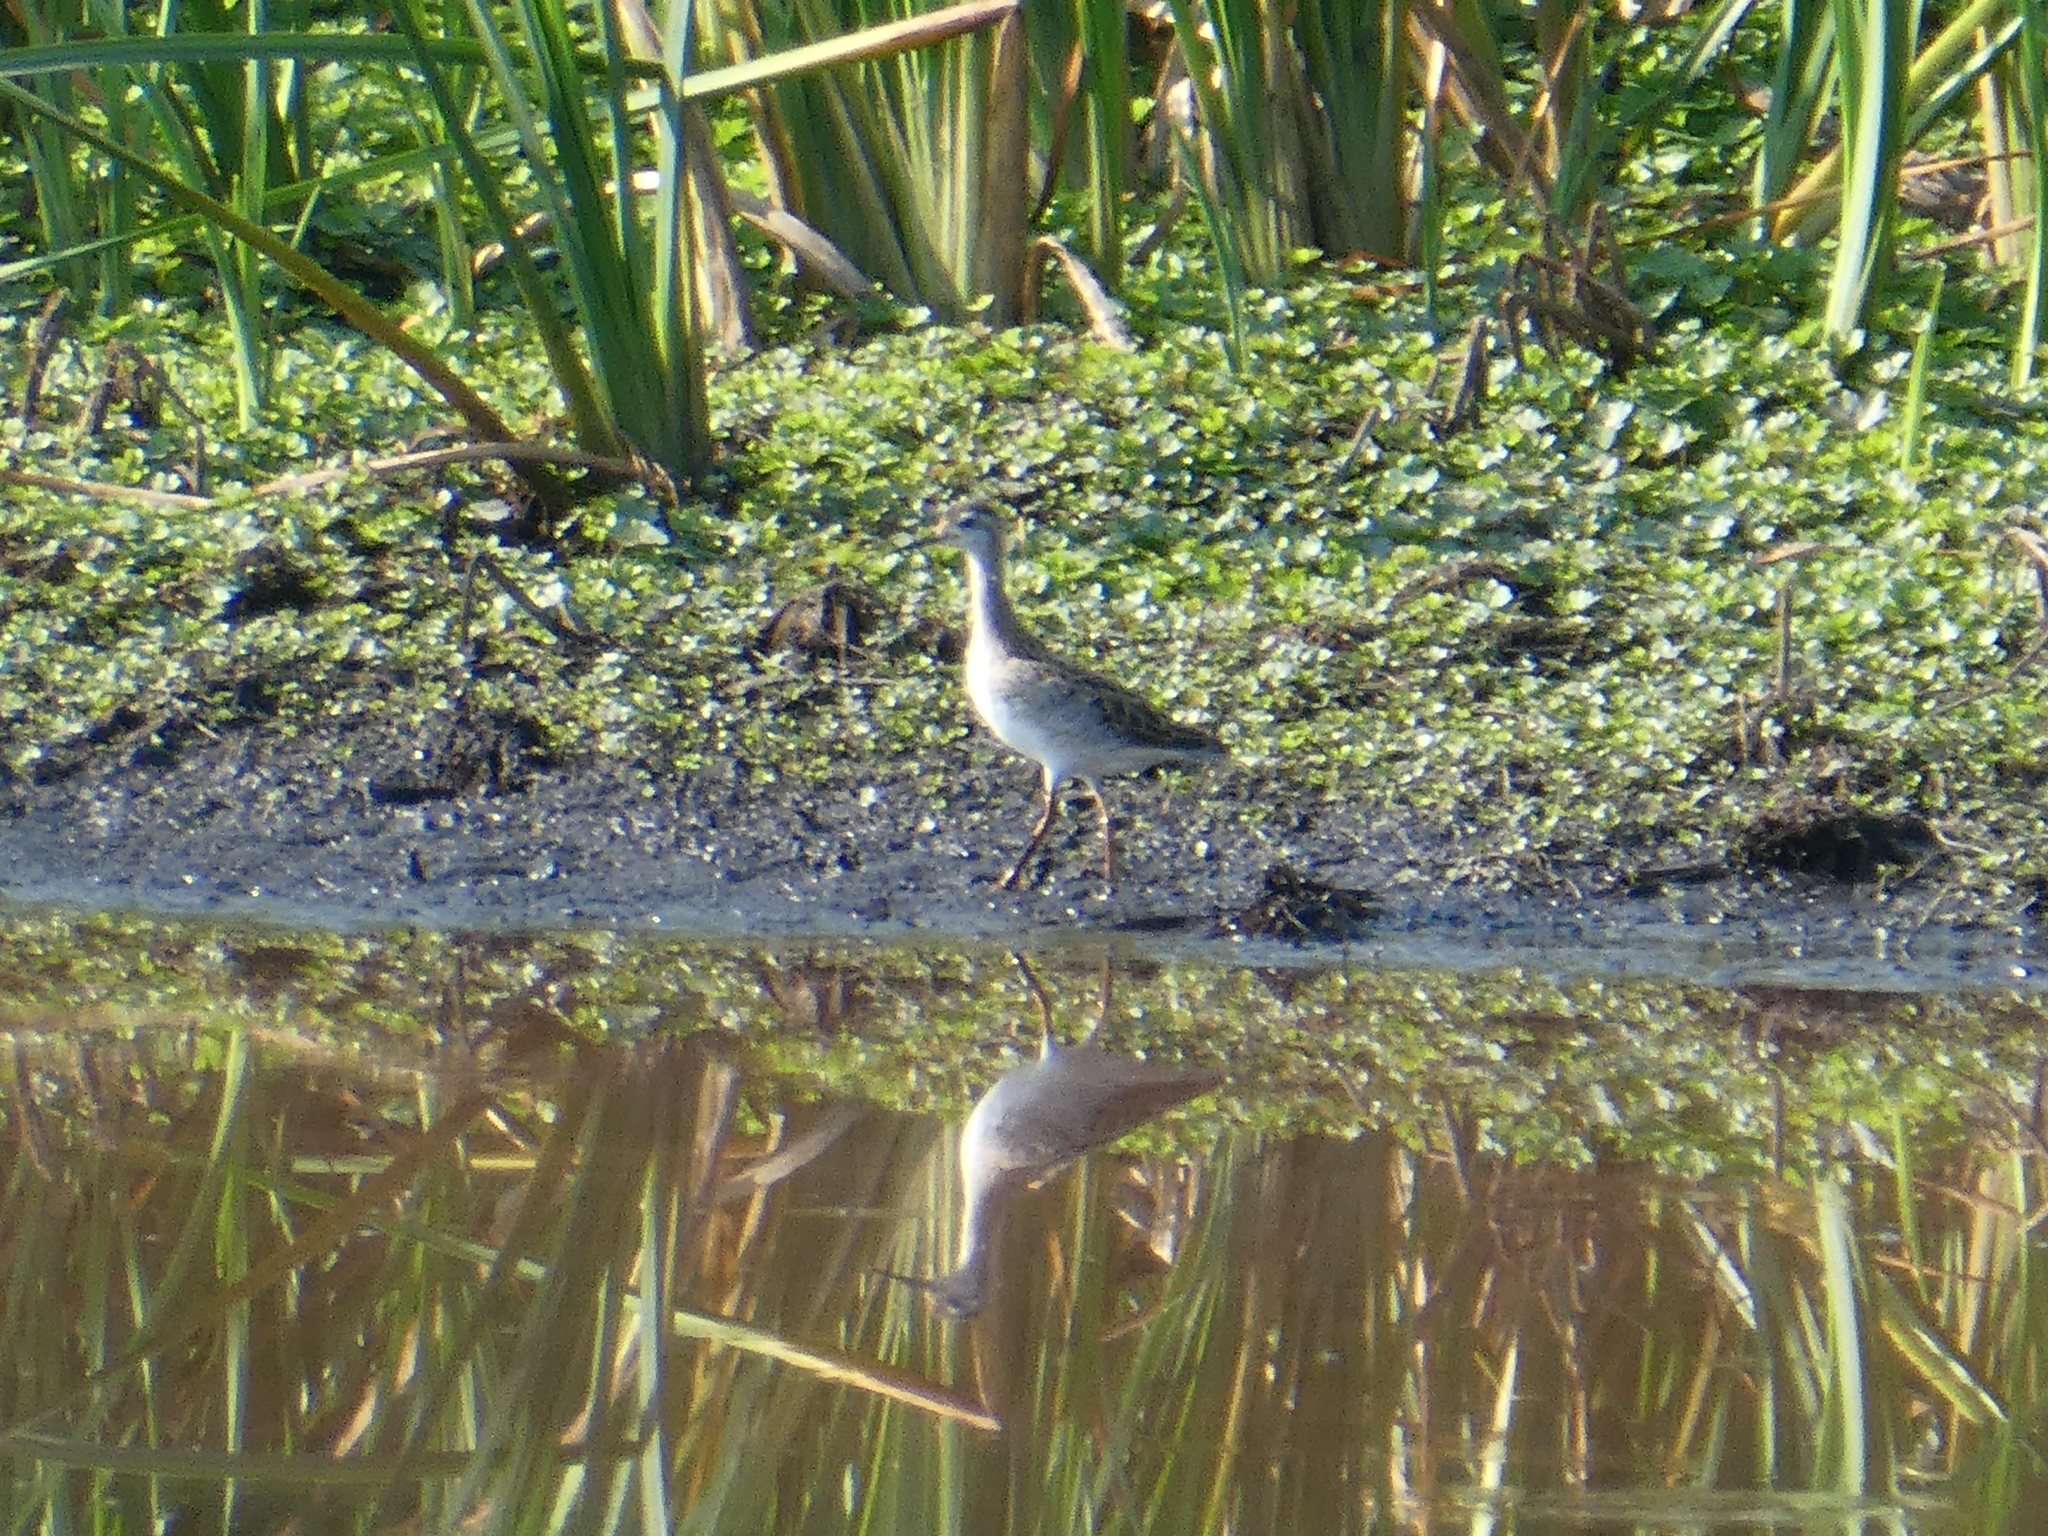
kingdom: Animalia
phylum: Chordata
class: Aves
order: Charadriiformes
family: Scolopacidae
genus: Phalaropus
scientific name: Phalaropus tricolor
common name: Wilson's phalarope
